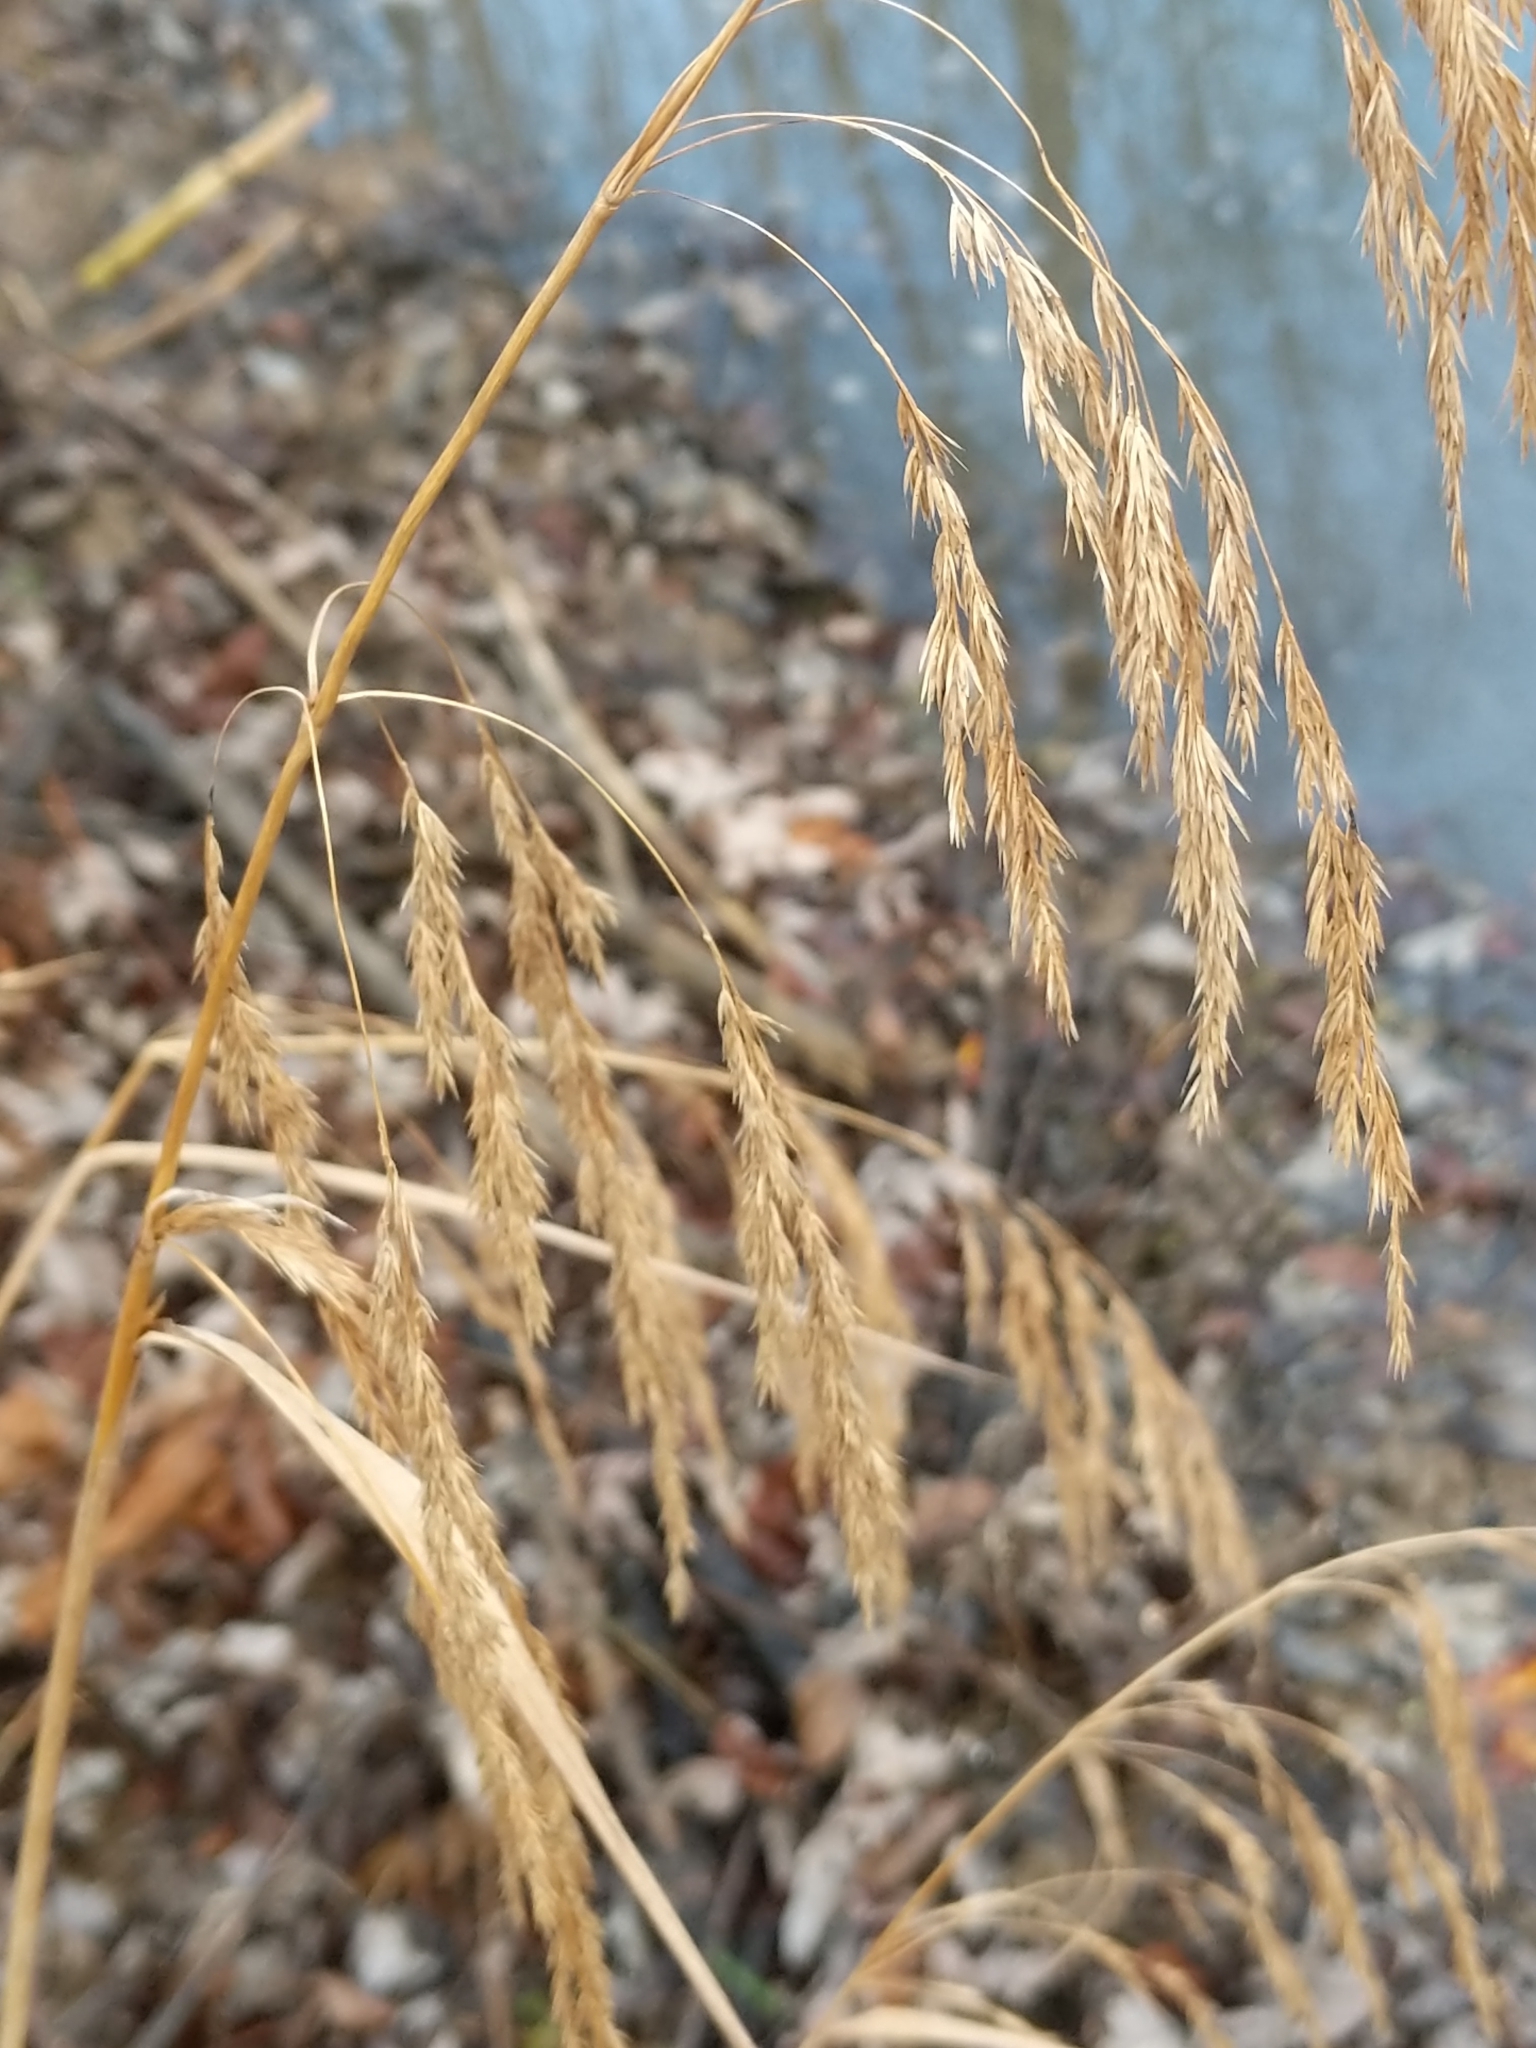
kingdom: Plantae
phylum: Tracheophyta
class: Liliopsida
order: Poales
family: Poaceae
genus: Cinna
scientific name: Cinna arundinacea
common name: Stout woodreed
